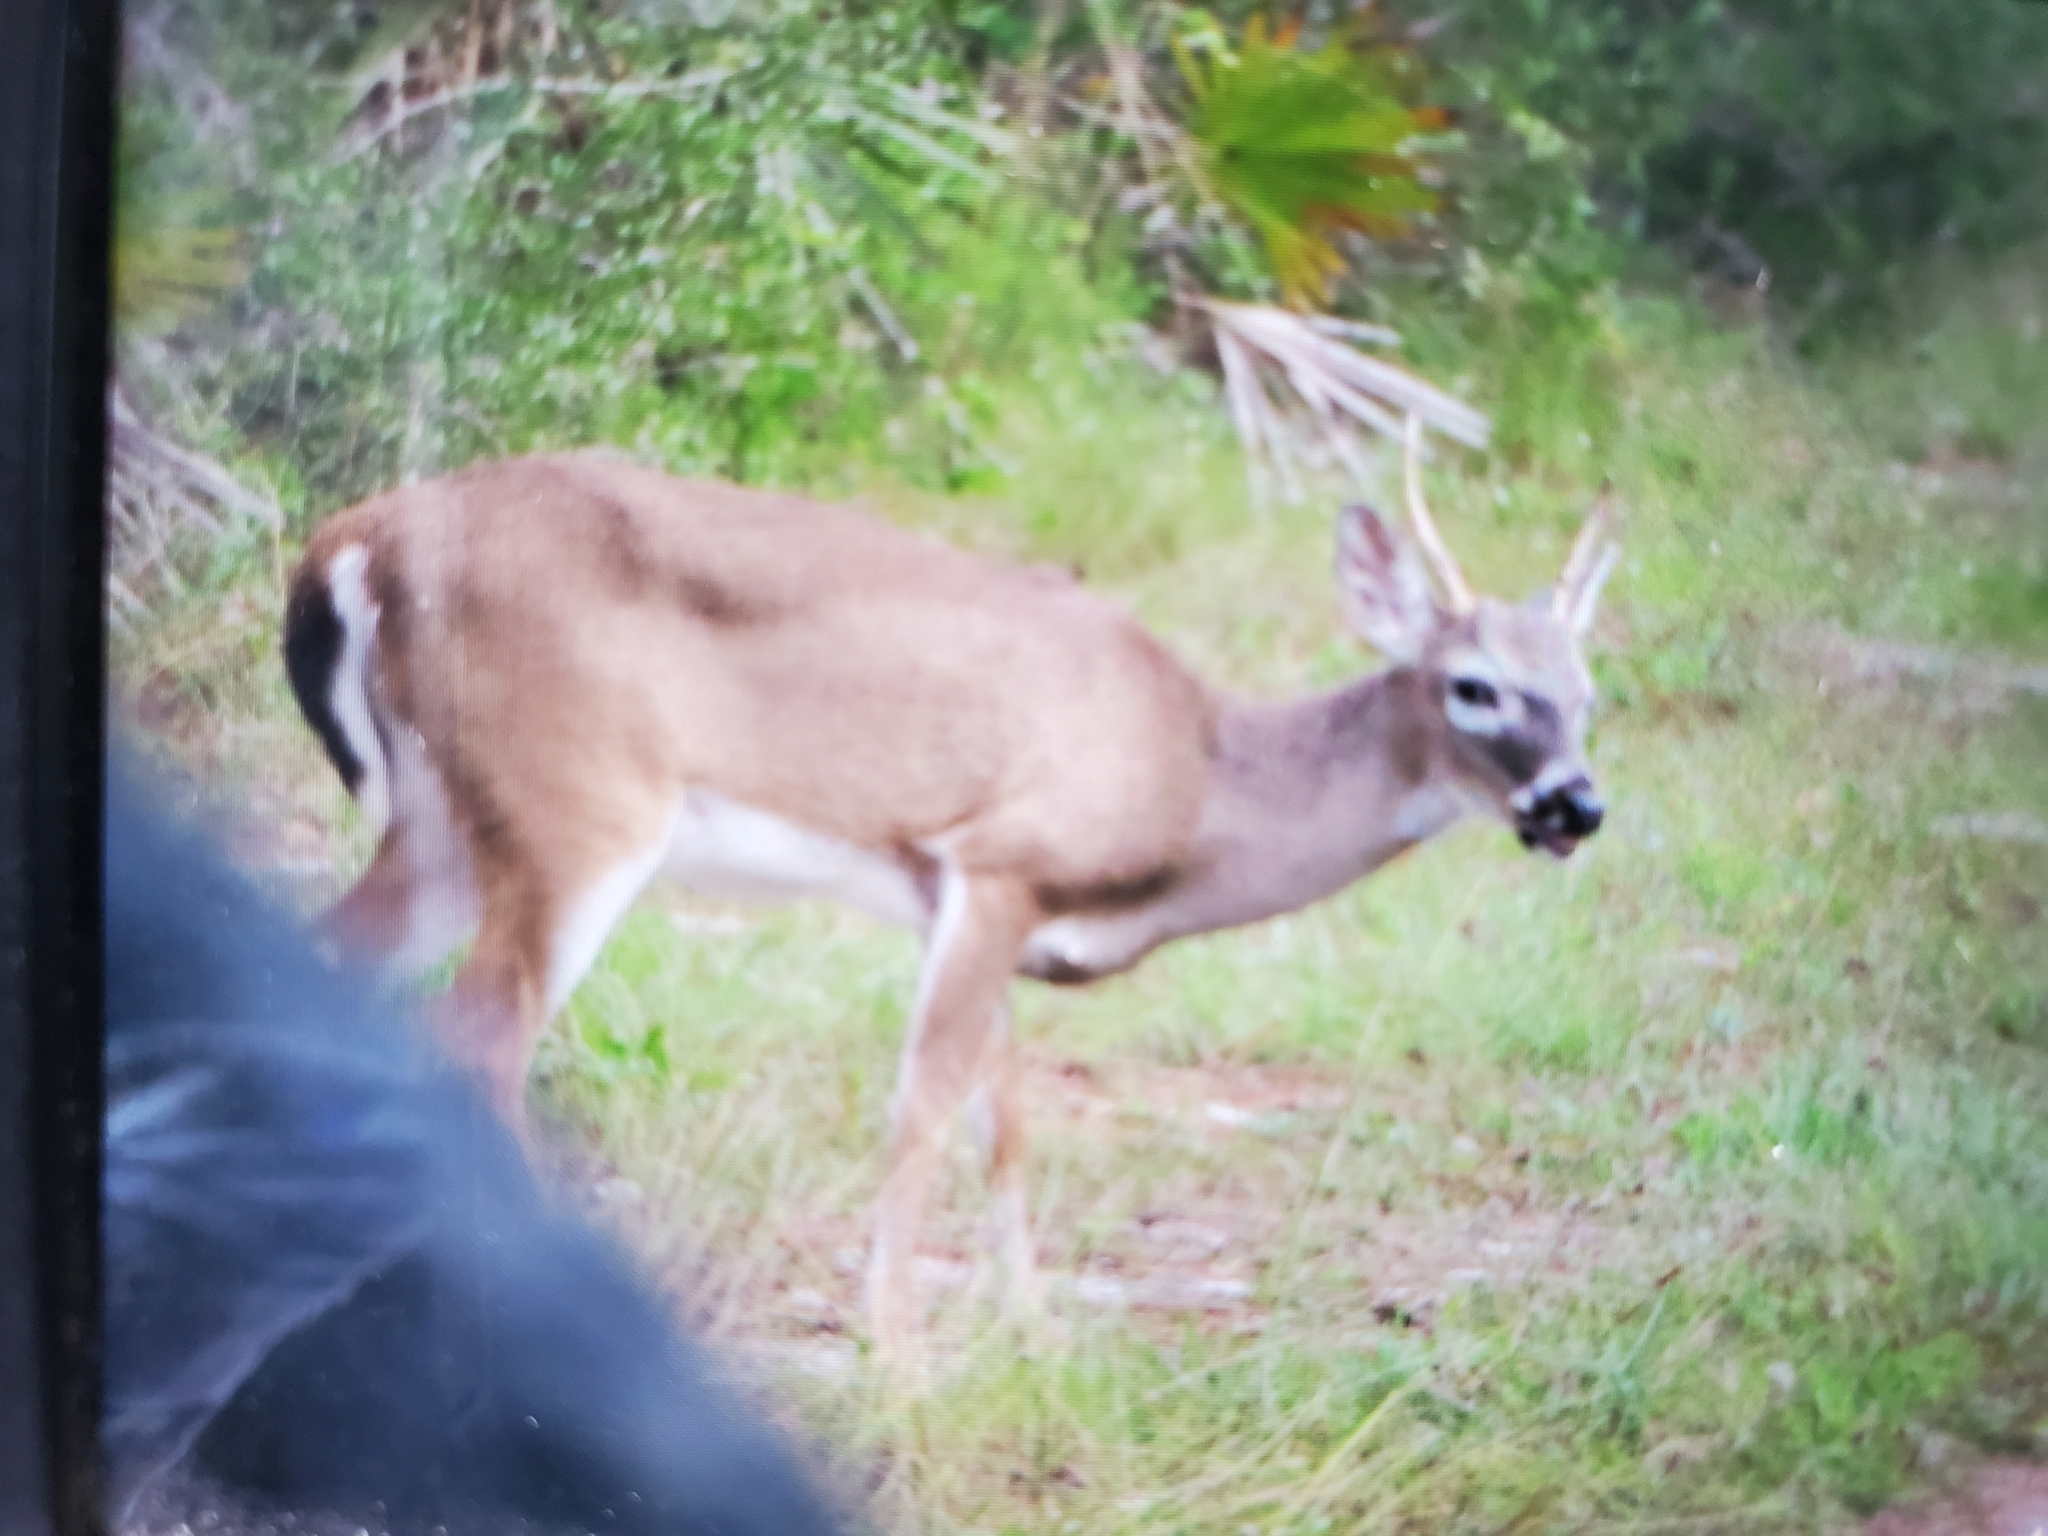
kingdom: Animalia
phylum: Chordata
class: Mammalia
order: Artiodactyla
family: Cervidae
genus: Odocoileus
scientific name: Odocoileus virginianus
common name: White-tailed deer
